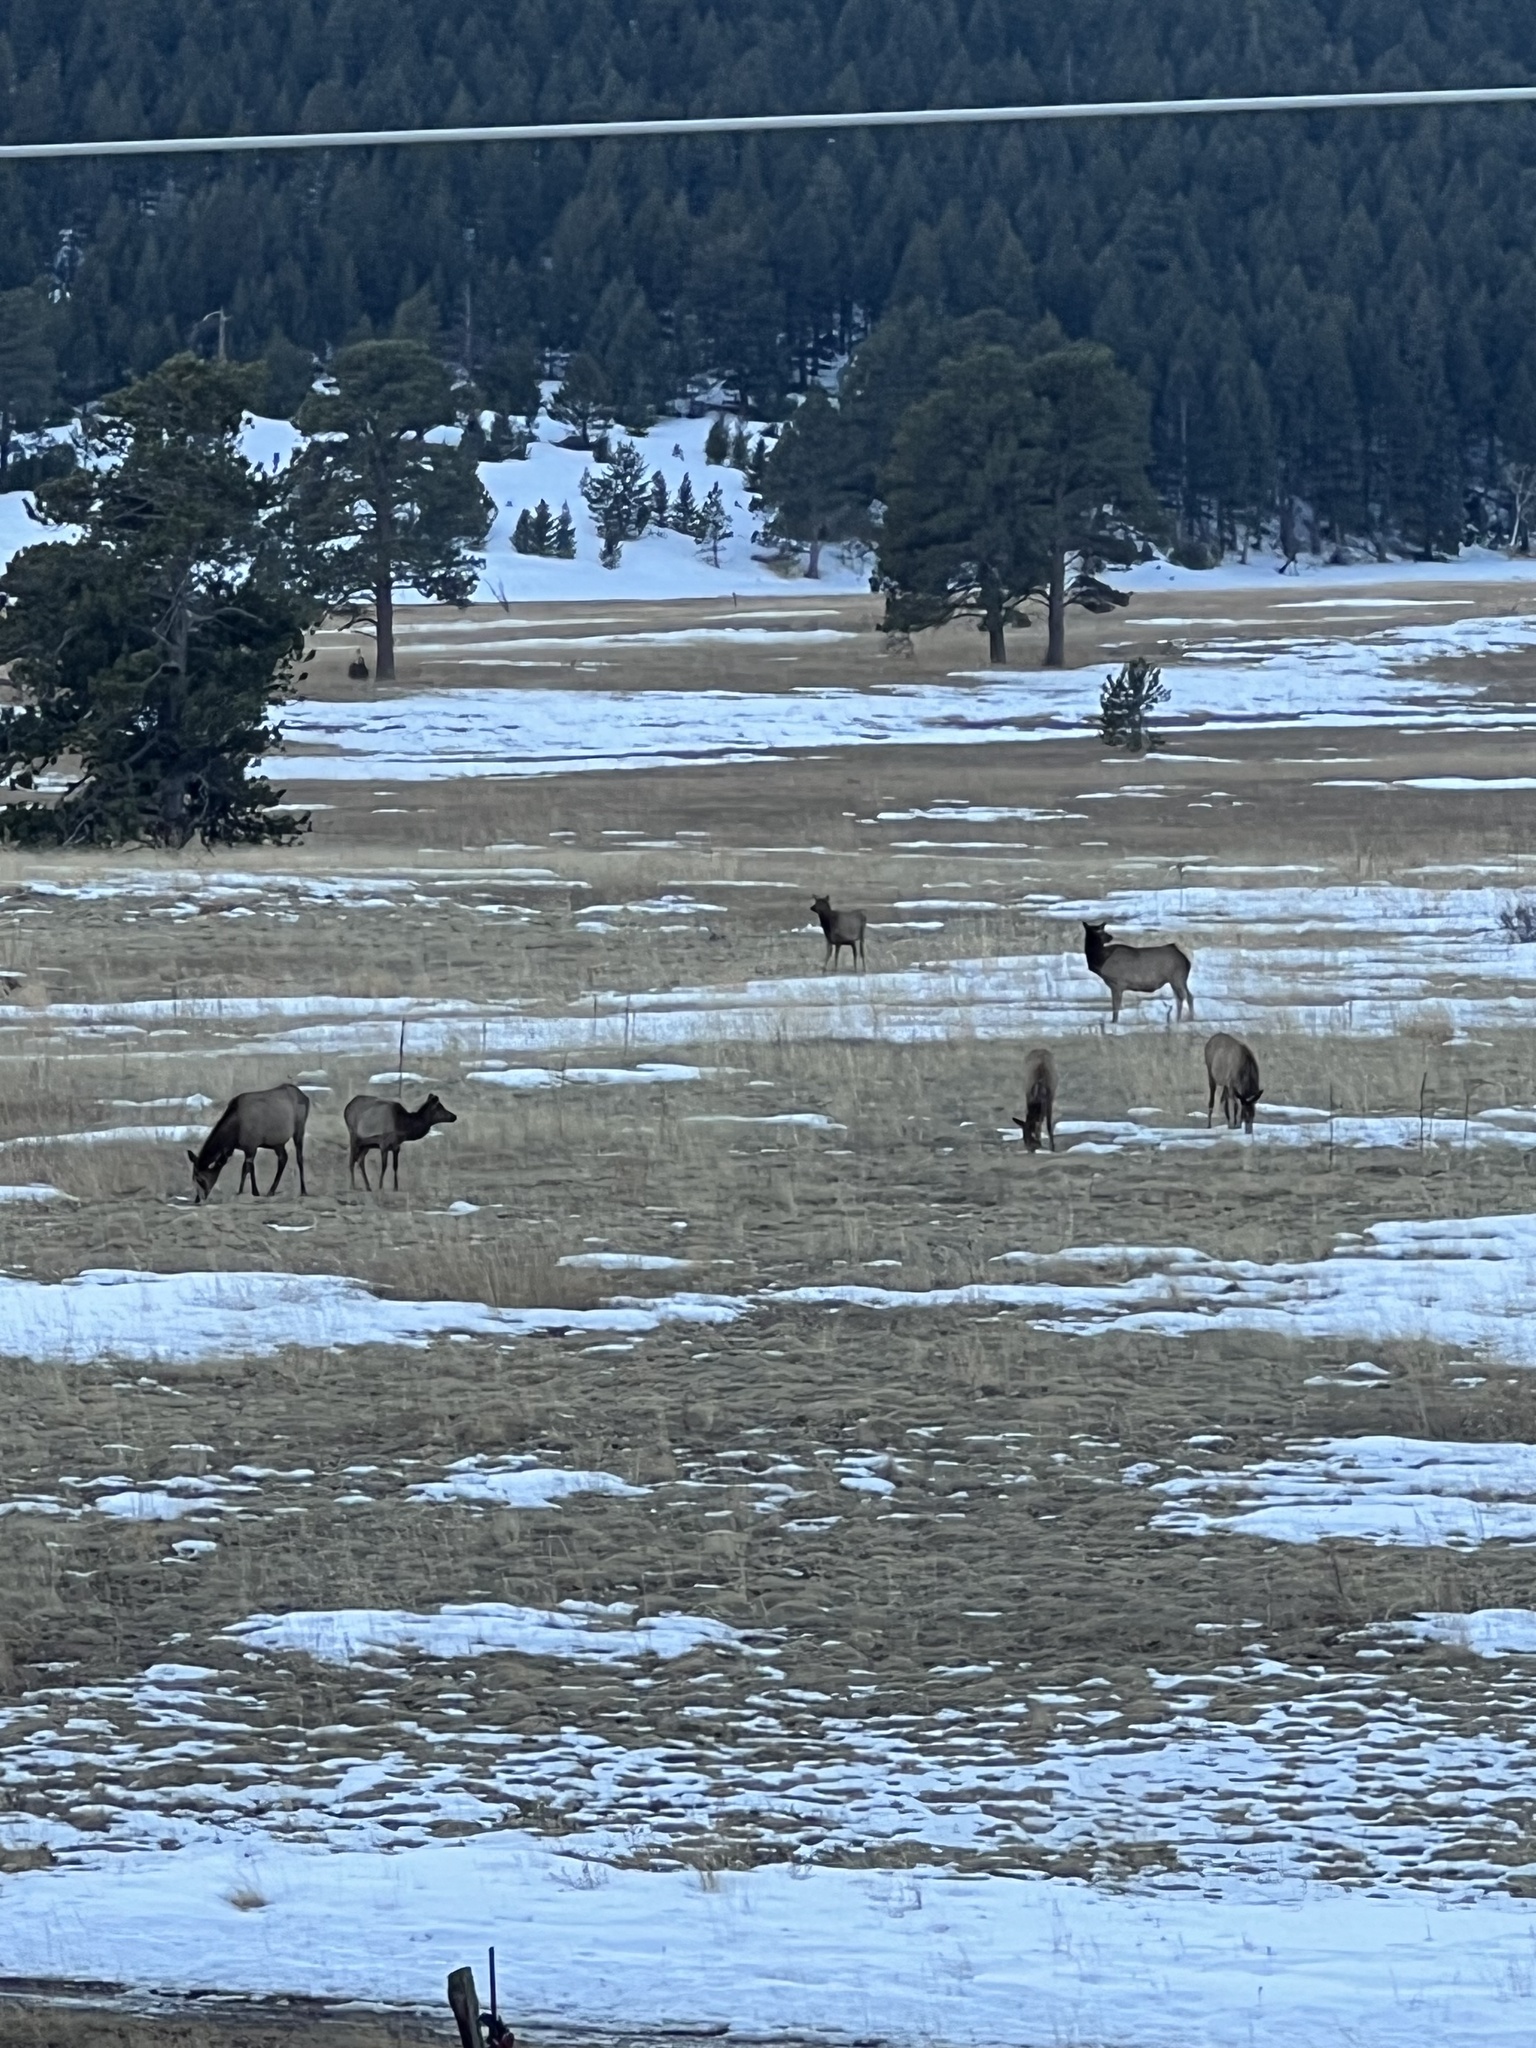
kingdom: Animalia
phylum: Chordata
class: Mammalia
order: Artiodactyla
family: Cervidae
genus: Cervus
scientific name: Cervus elaphus
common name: Red deer
